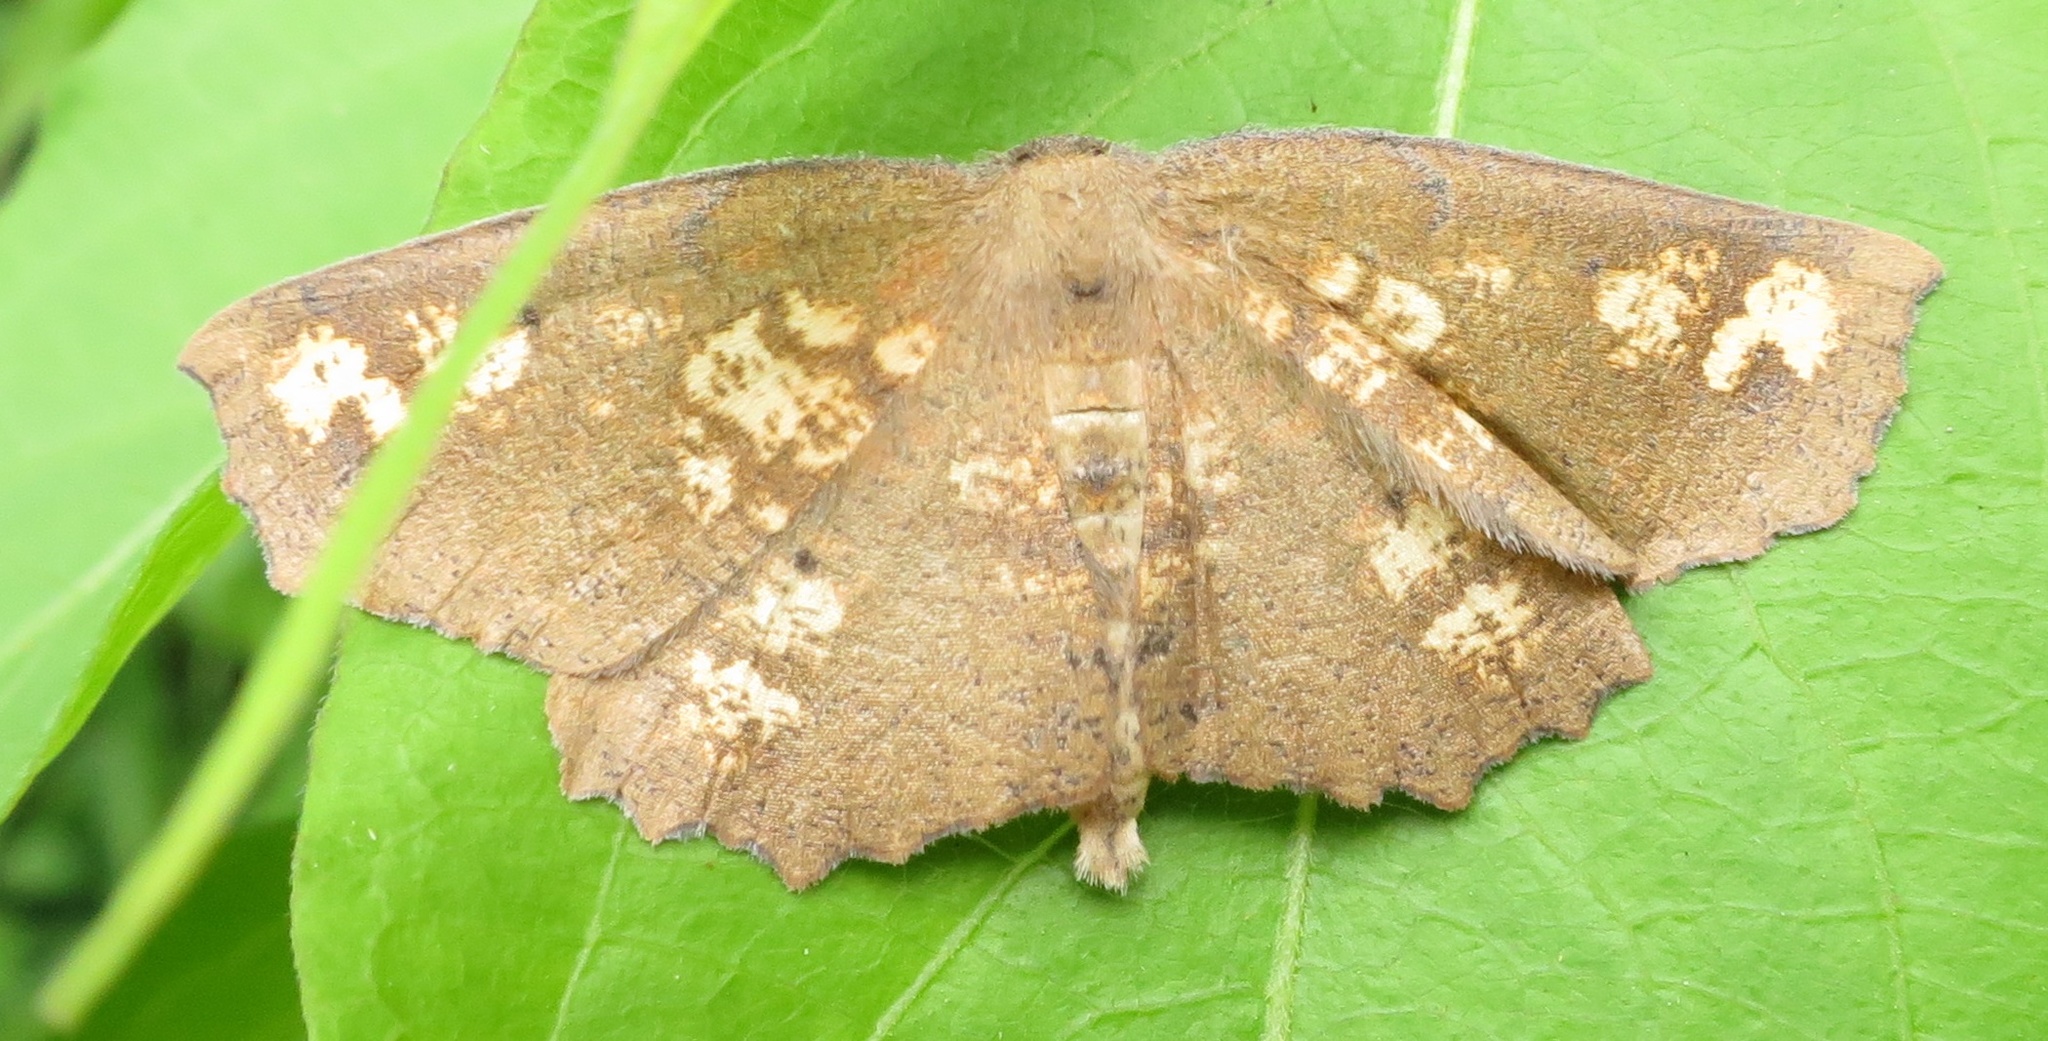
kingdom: Animalia
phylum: Arthropoda
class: Insecta
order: Lepidoptera
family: Geometridae
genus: Xyridacma
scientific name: Xyridacma ustaria
